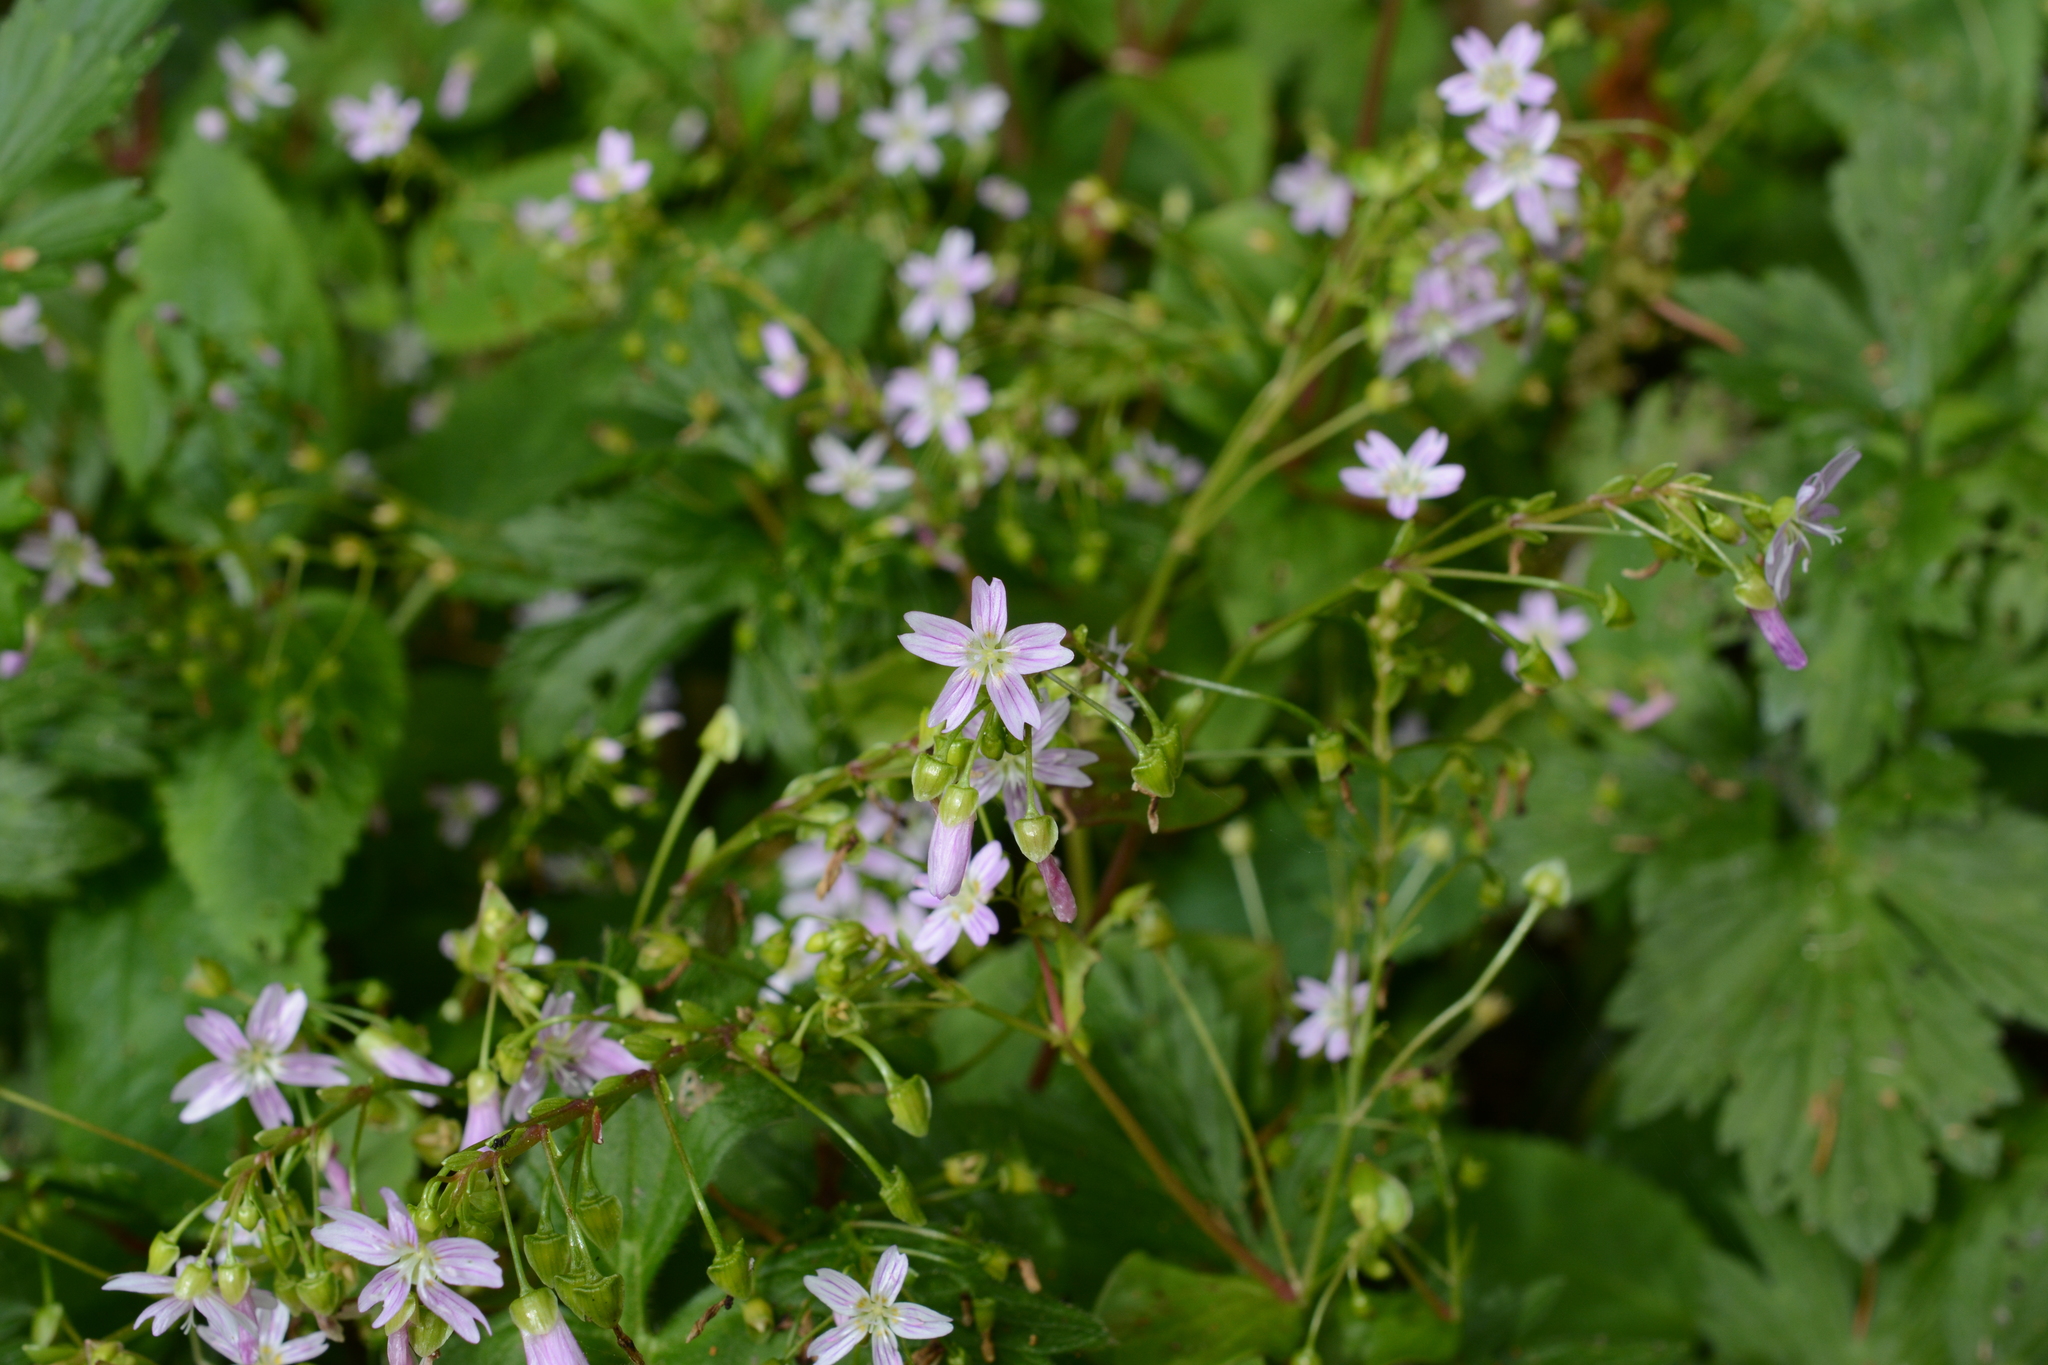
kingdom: Plantae
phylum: Tracheophyta
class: Magnoliopsida
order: Caryophyllales
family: Montiaceae
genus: Claytonia
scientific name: Claytonia sibirica
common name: Pink purslane
